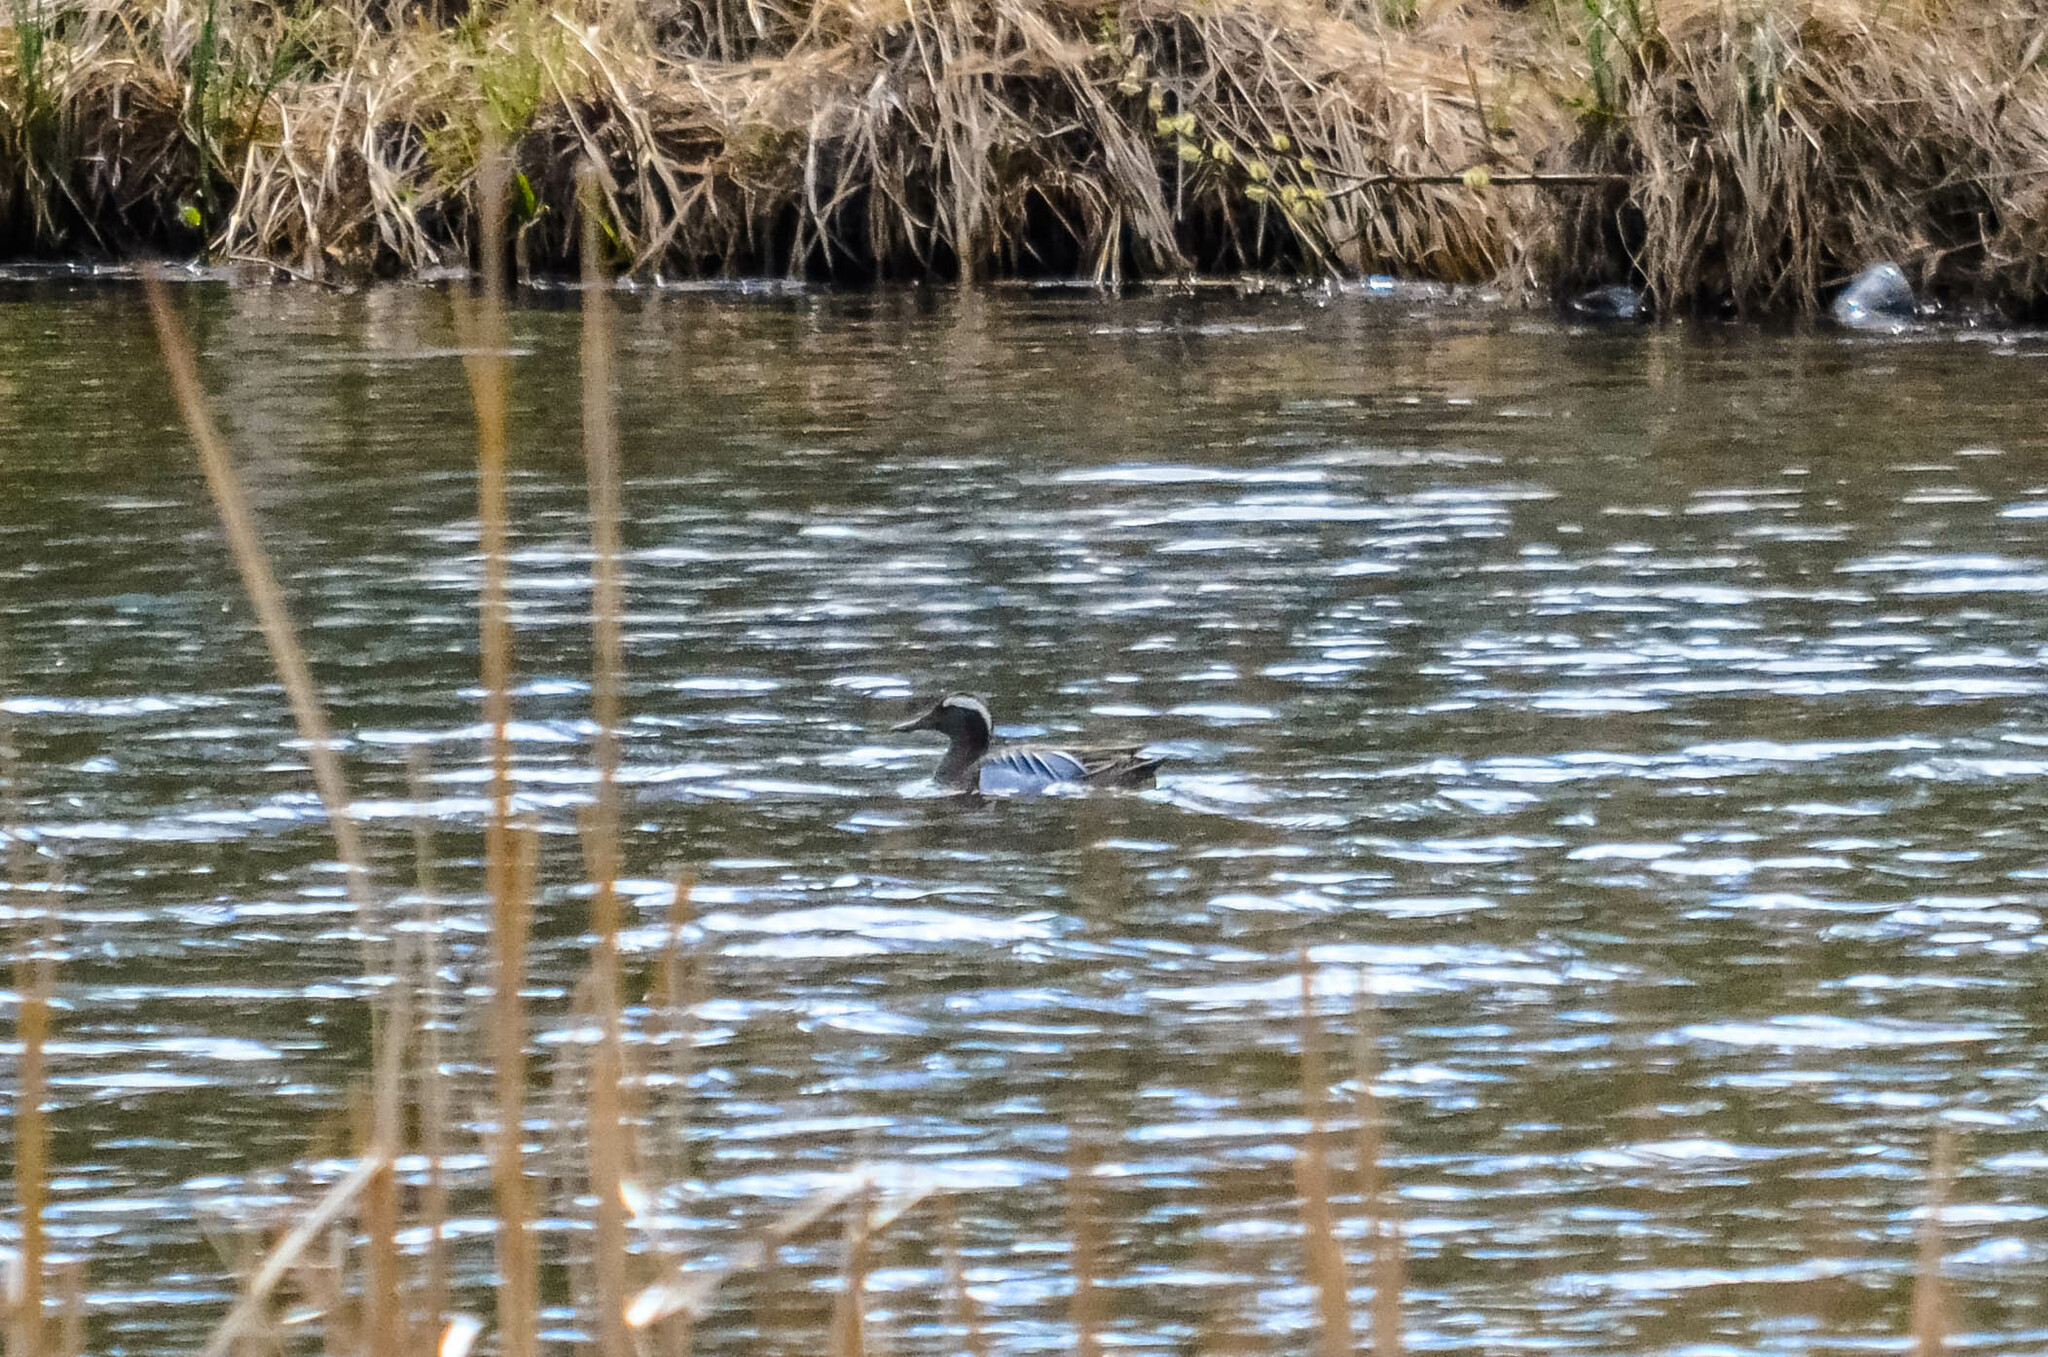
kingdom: Animalia
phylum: Chordata
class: Aves
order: Anseriformes
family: Anatidae
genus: Spatula
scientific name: Spatula querquedula
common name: Garganey
